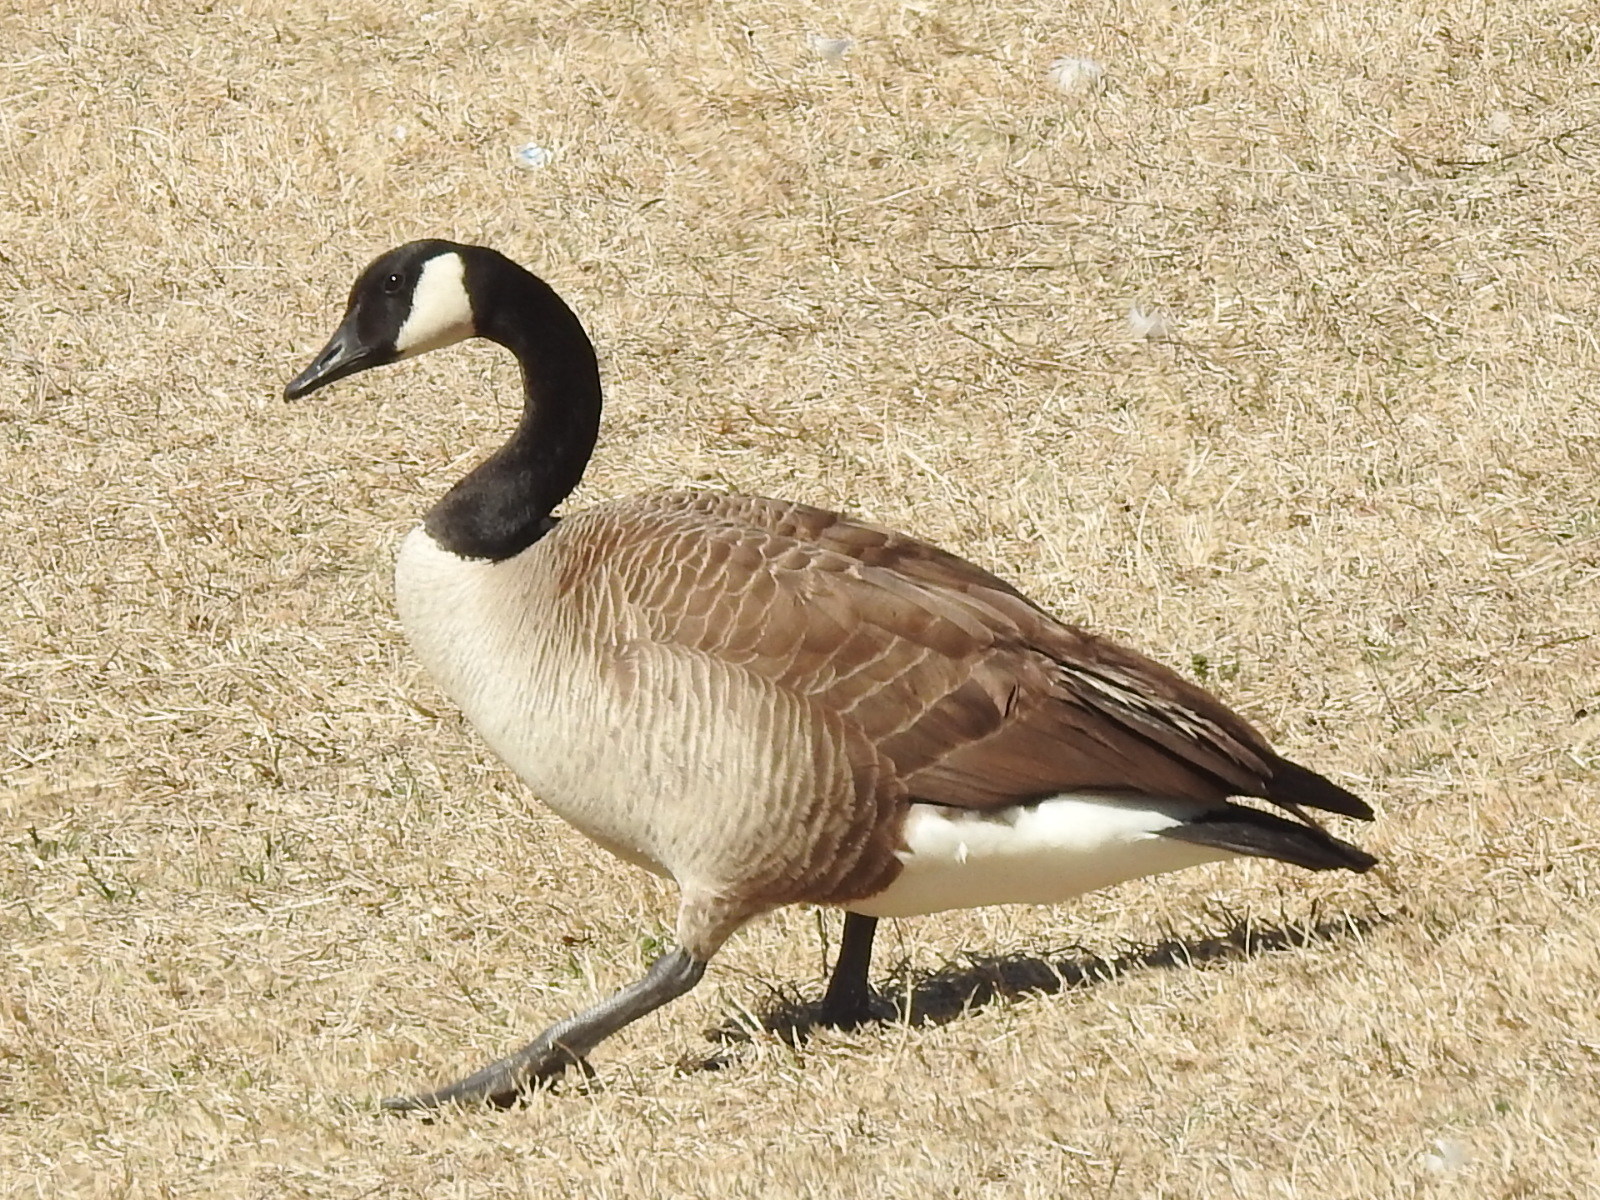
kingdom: Animalia
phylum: Chordata
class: Aves
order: Anseriformes
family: Anatidae
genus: Branta
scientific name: Branta canadensis
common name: Canada goose
